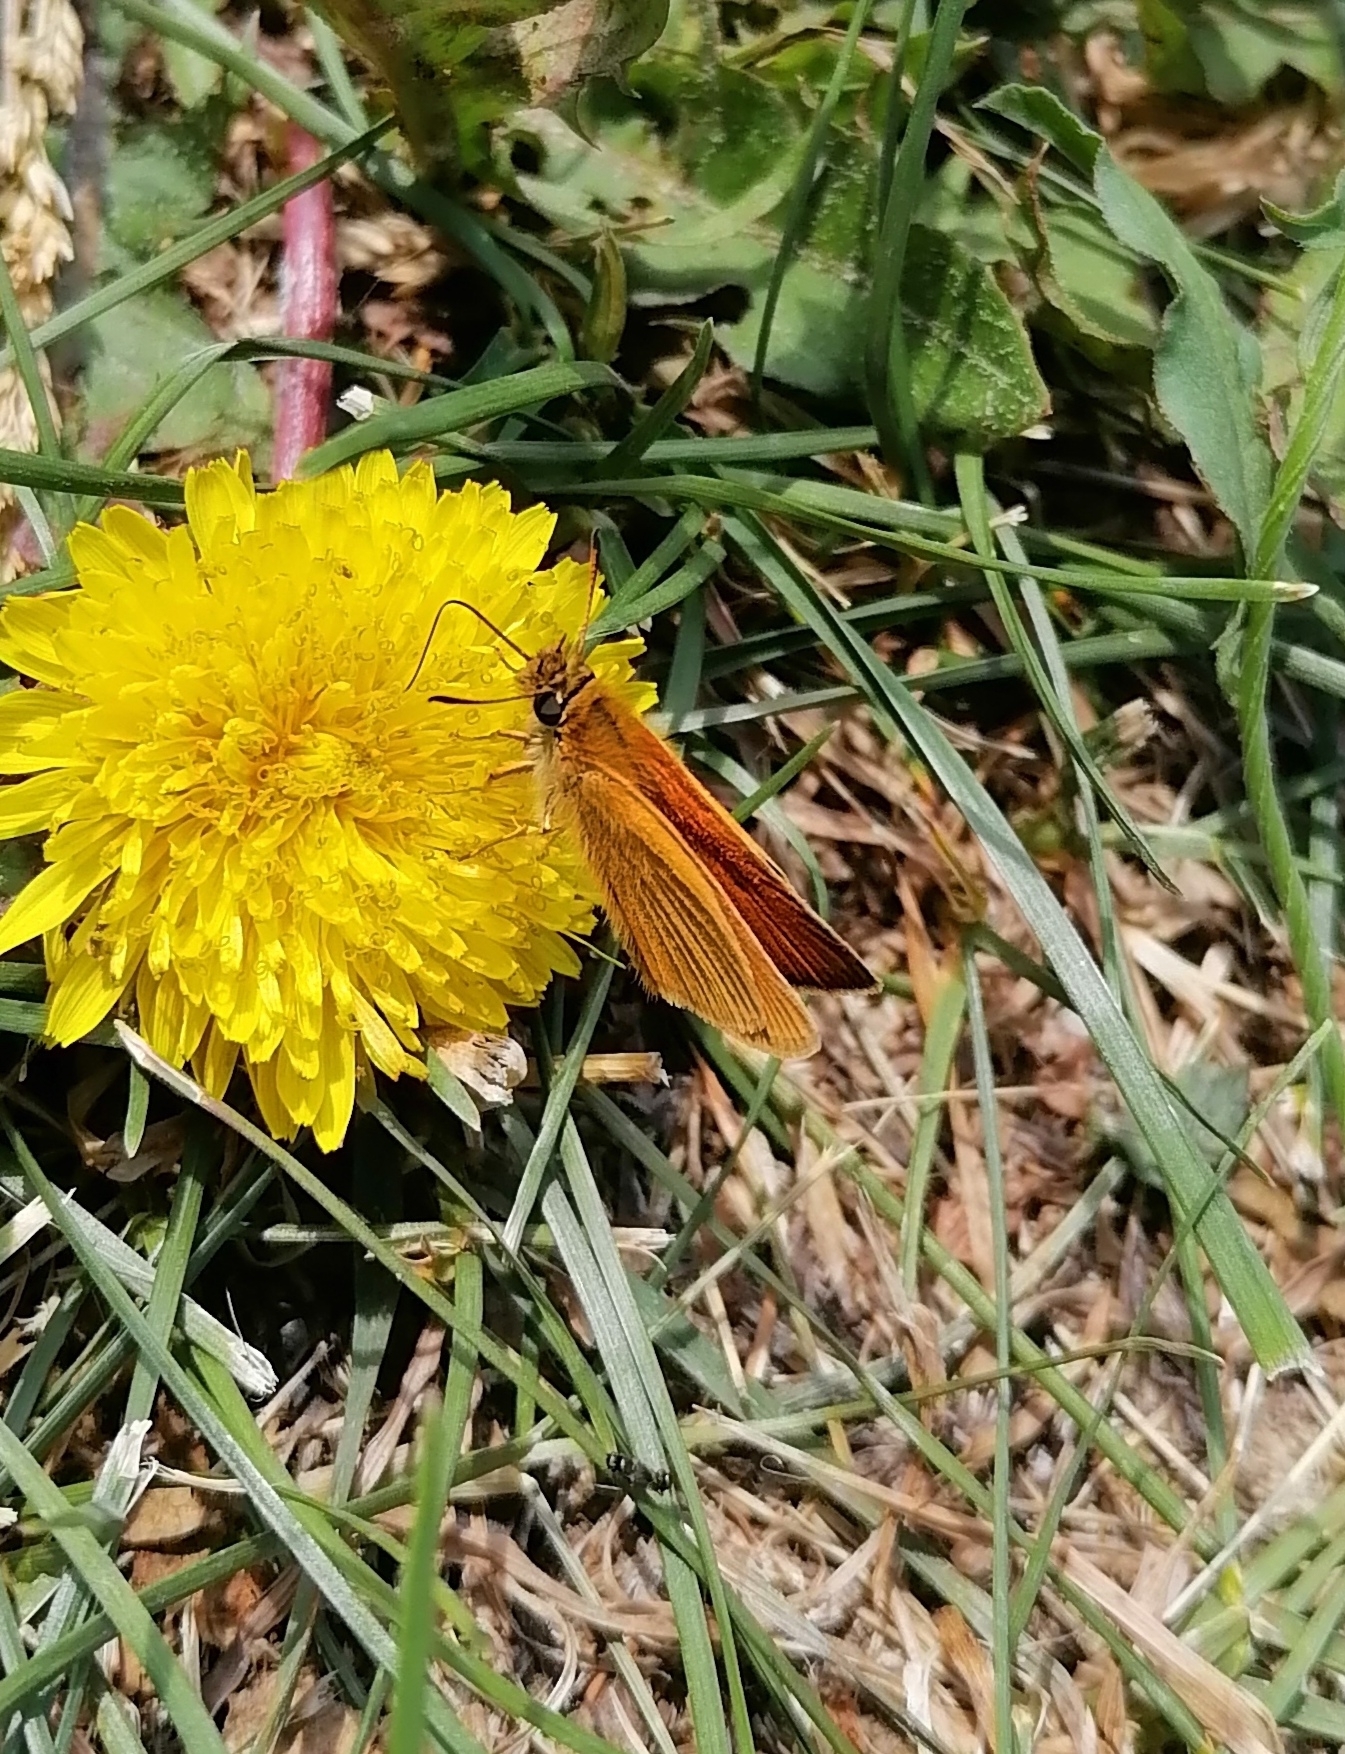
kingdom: Animalia
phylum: Arthropoda
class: Insecta
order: Lepidoptera
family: Hesperiidae
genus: Thymelicus
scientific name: Thymelicus lineola
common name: Essex skipper
